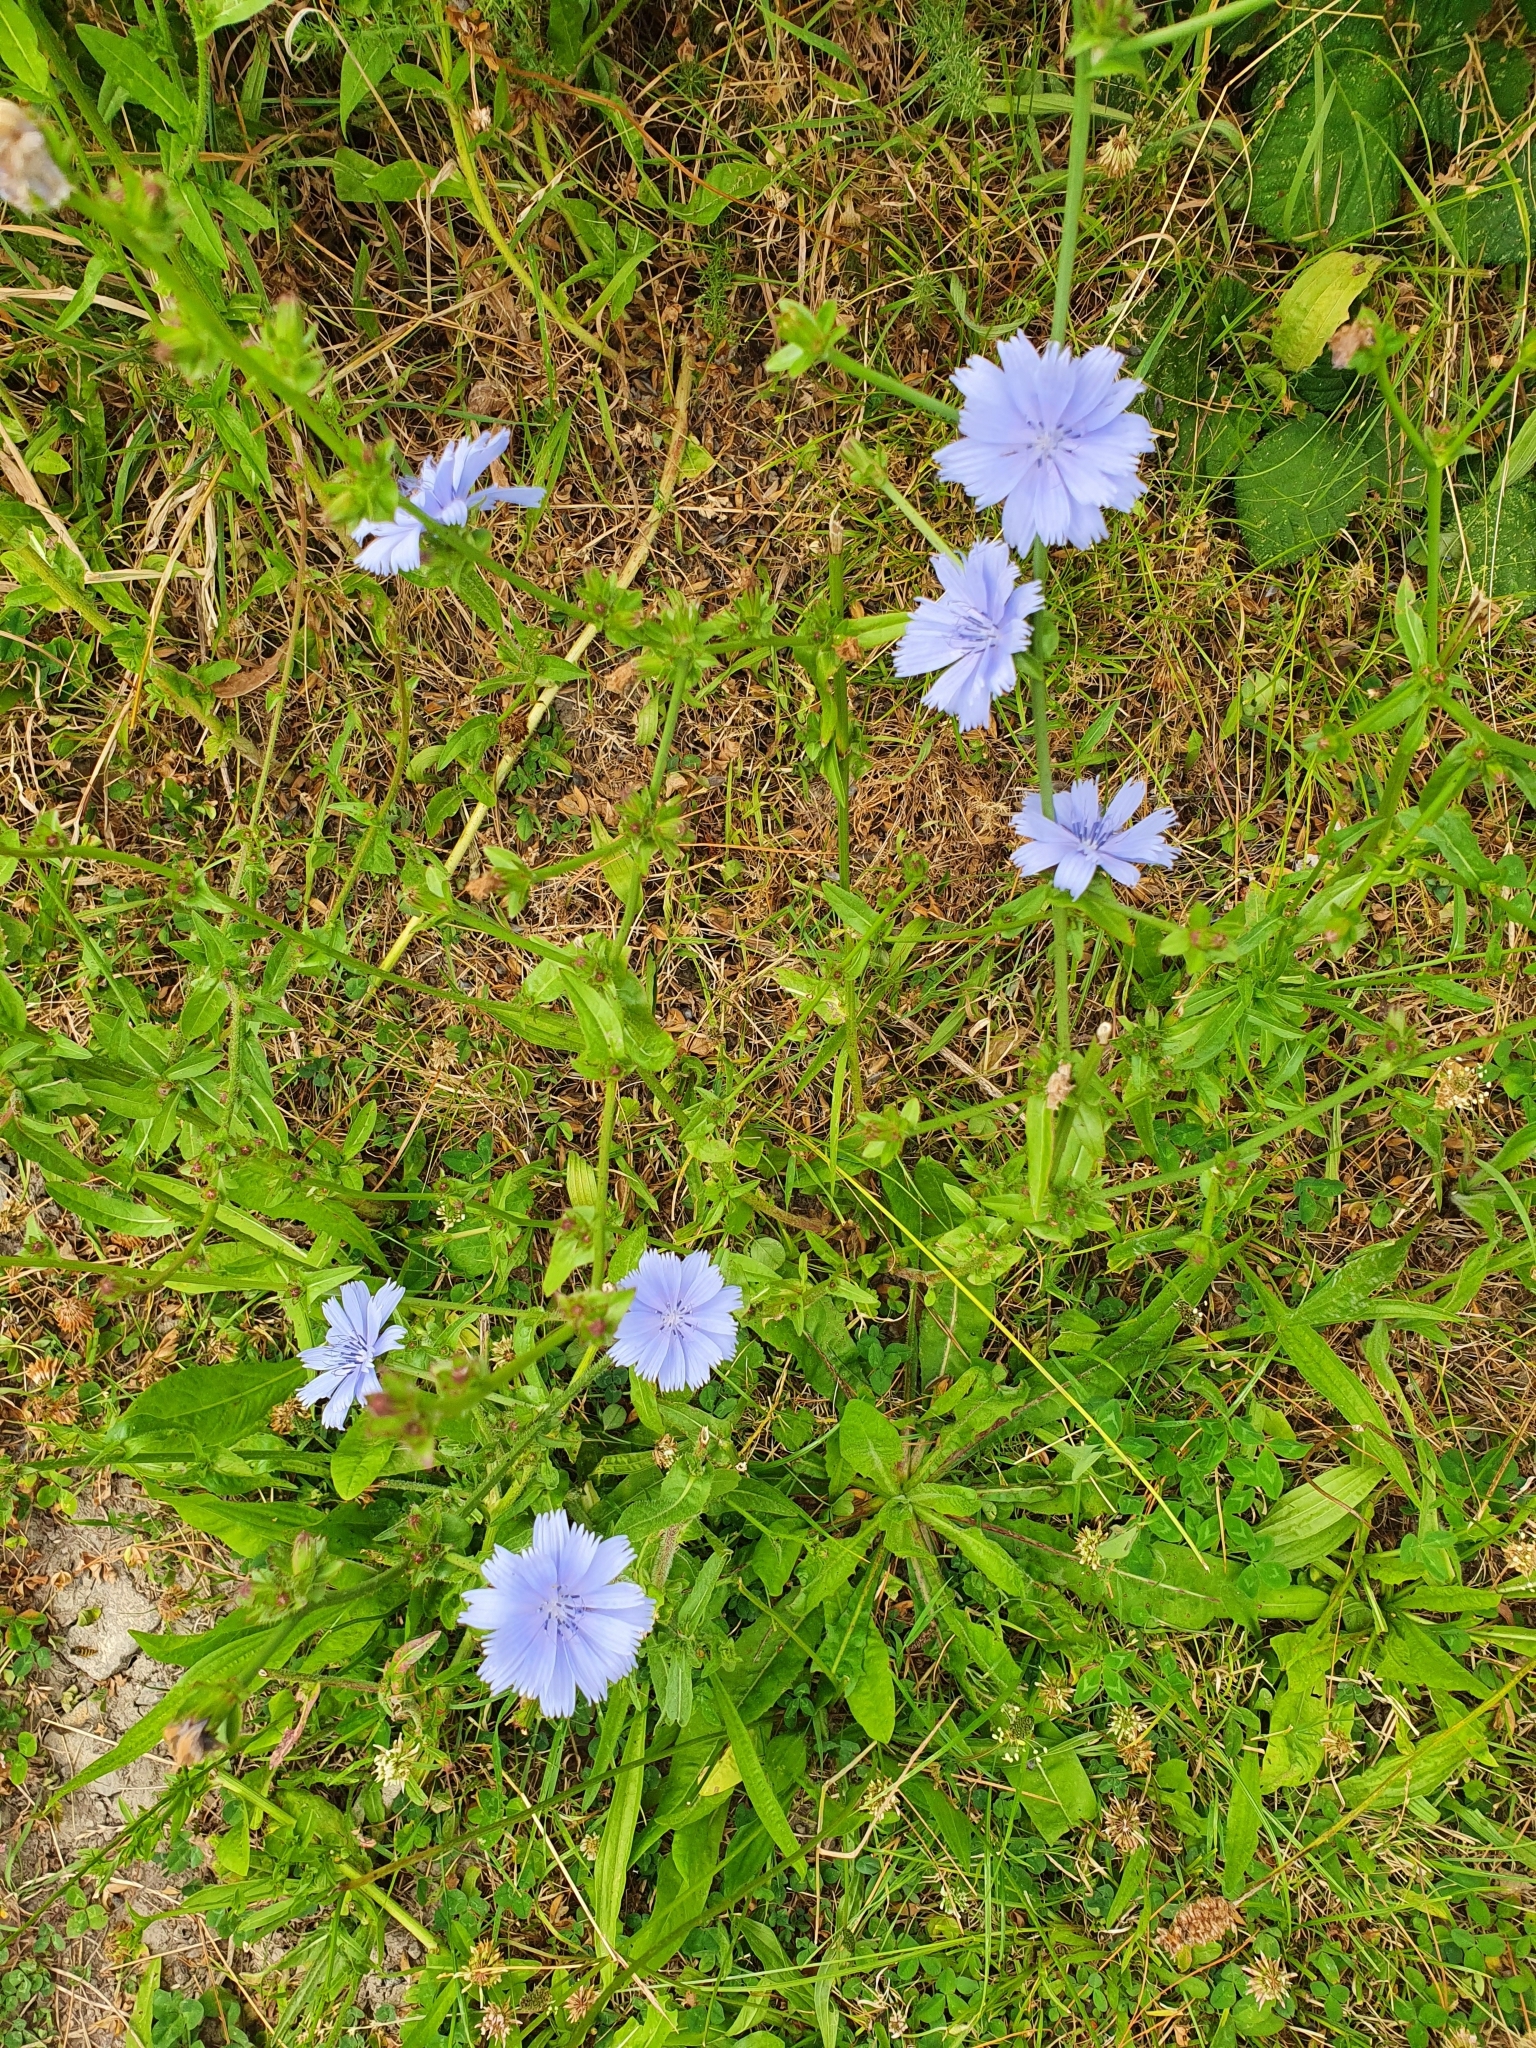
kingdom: Plantae
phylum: Tracheophyta
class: Magnoliopsida
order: Asterales
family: Asteraceae
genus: Cichorium
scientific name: Cichorium intybus
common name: Chicory
